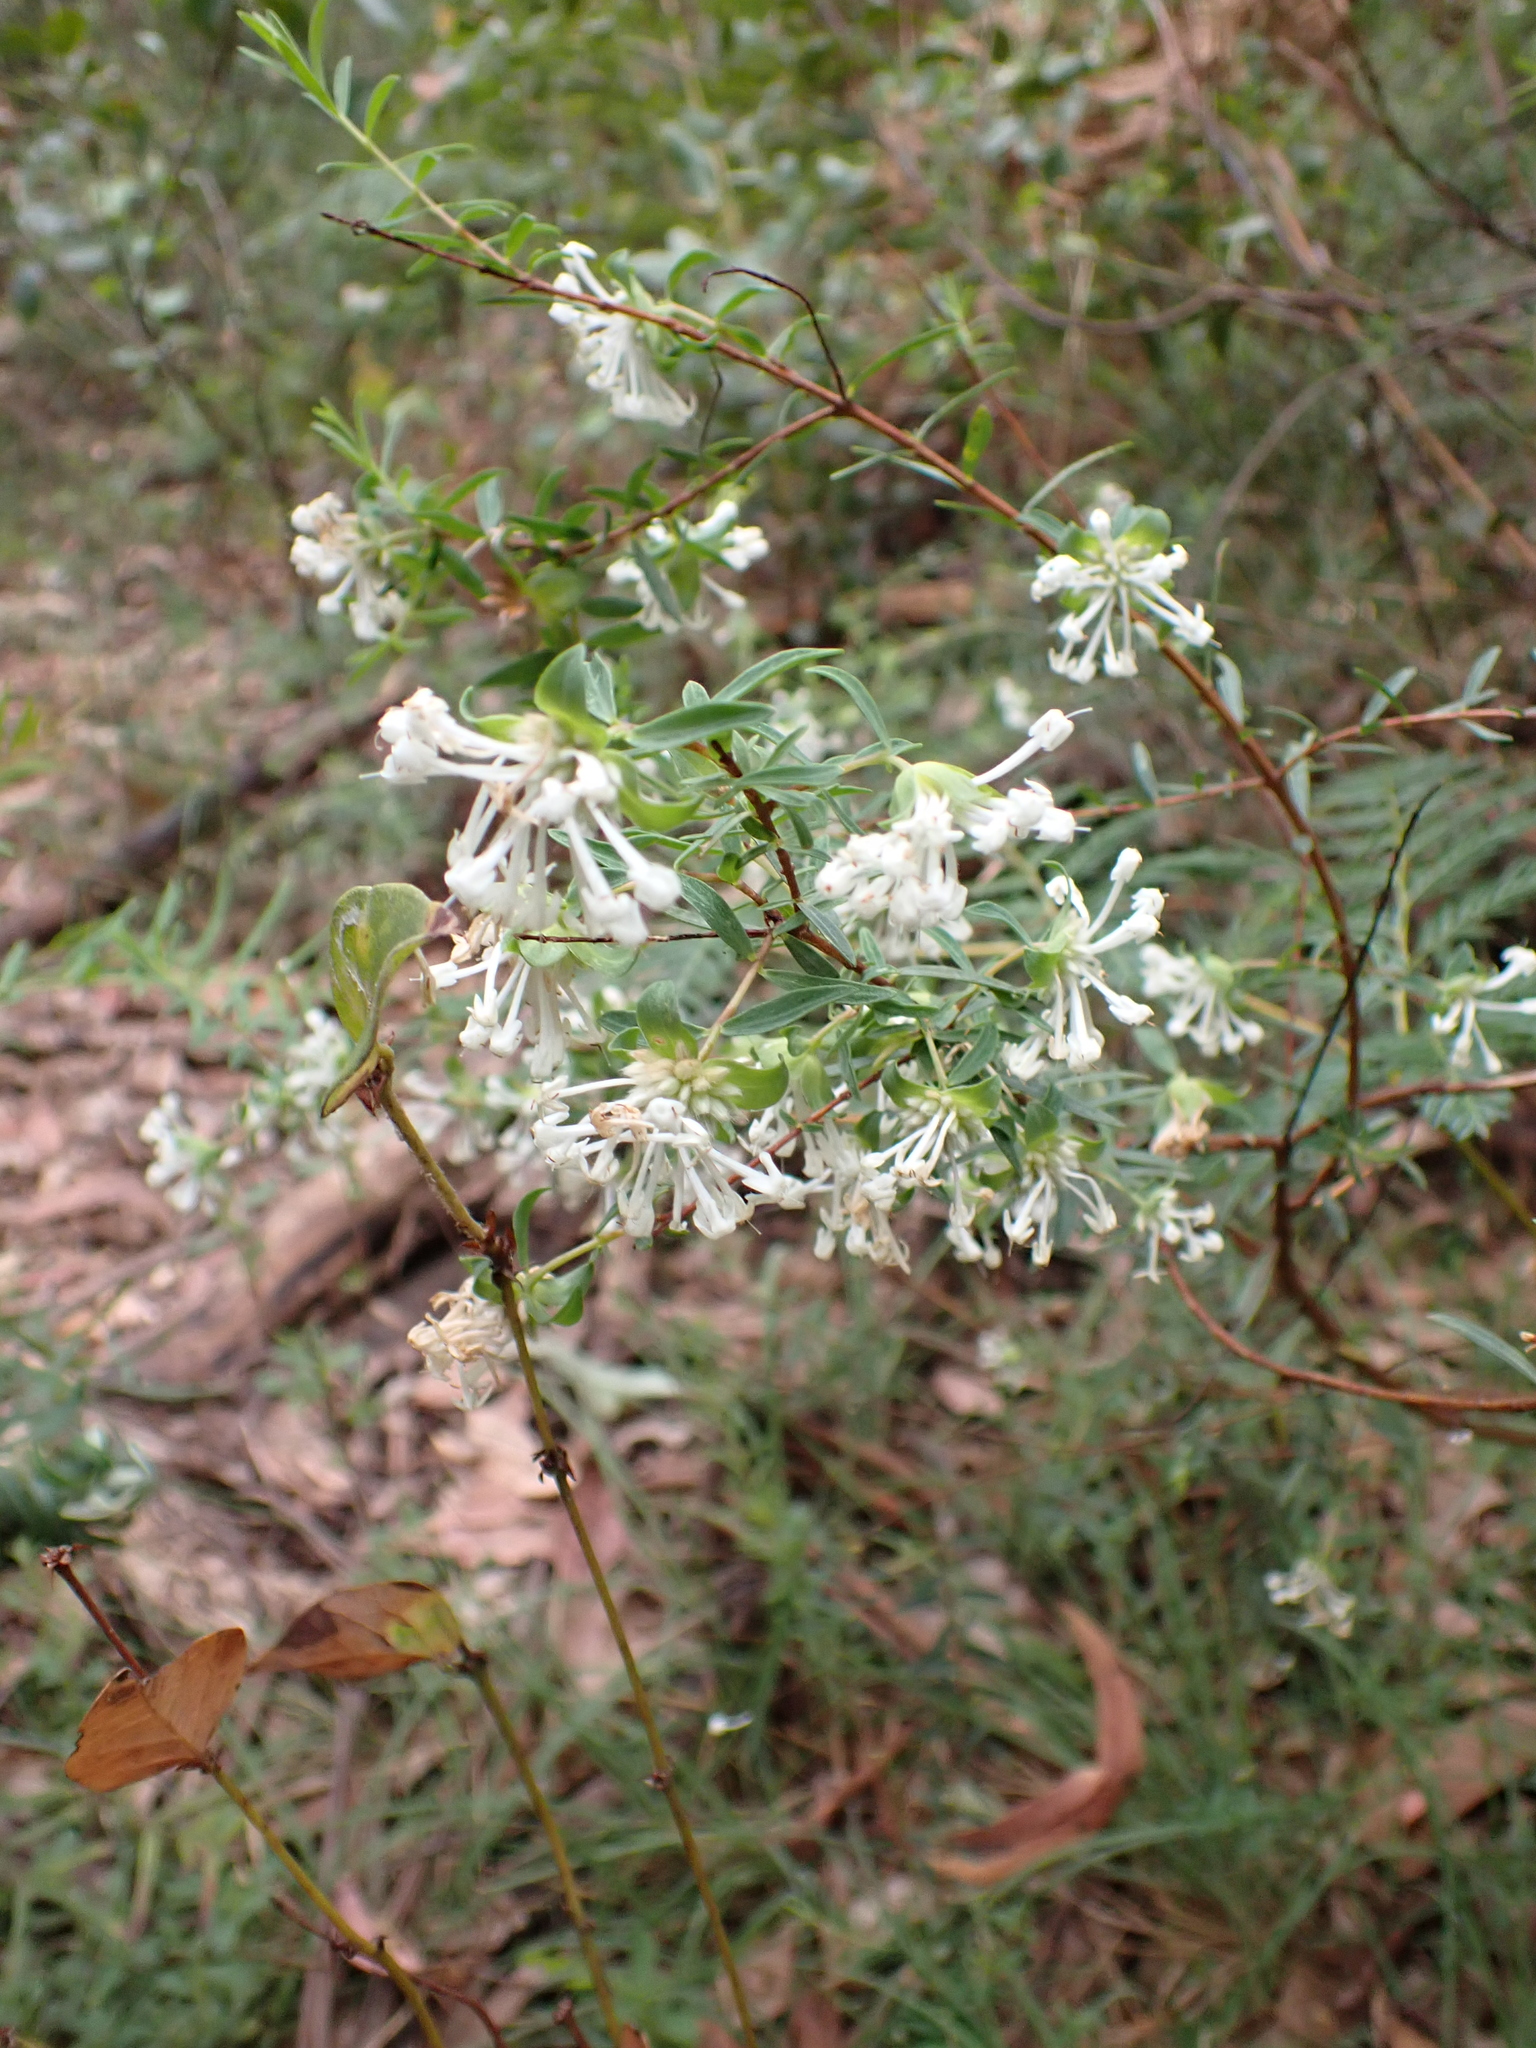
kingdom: Plantae
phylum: Tracheophyta
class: Magnoliopsida
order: Malvales
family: Thymelaeaceae
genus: Pimelea
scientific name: Pimelea linifolia
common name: Queen-of-the-bush
